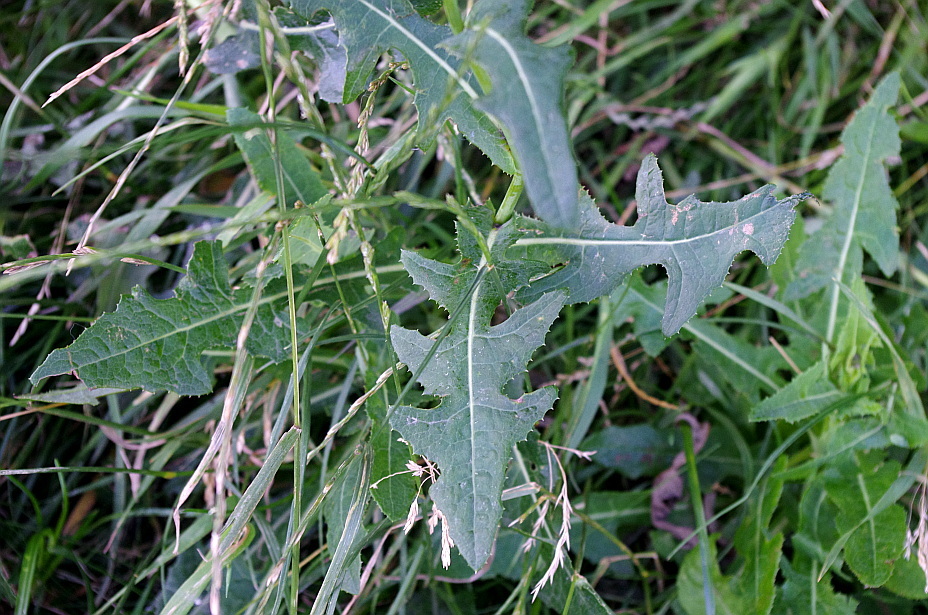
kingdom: Plantae
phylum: Tracheophyta
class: Magnoliopsida
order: Asterales
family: Asteraceae
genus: Sonchus
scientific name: Sonchus arvensis
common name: Perennial sow-thistle
